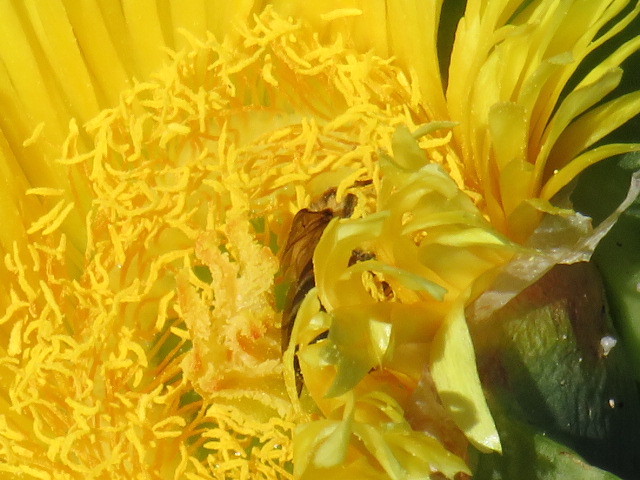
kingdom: Animalia
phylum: Arthropoda
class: Insecta
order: Hymenoptera
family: Apidae
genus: Apis
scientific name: Apis mellifera
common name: Honey bee
